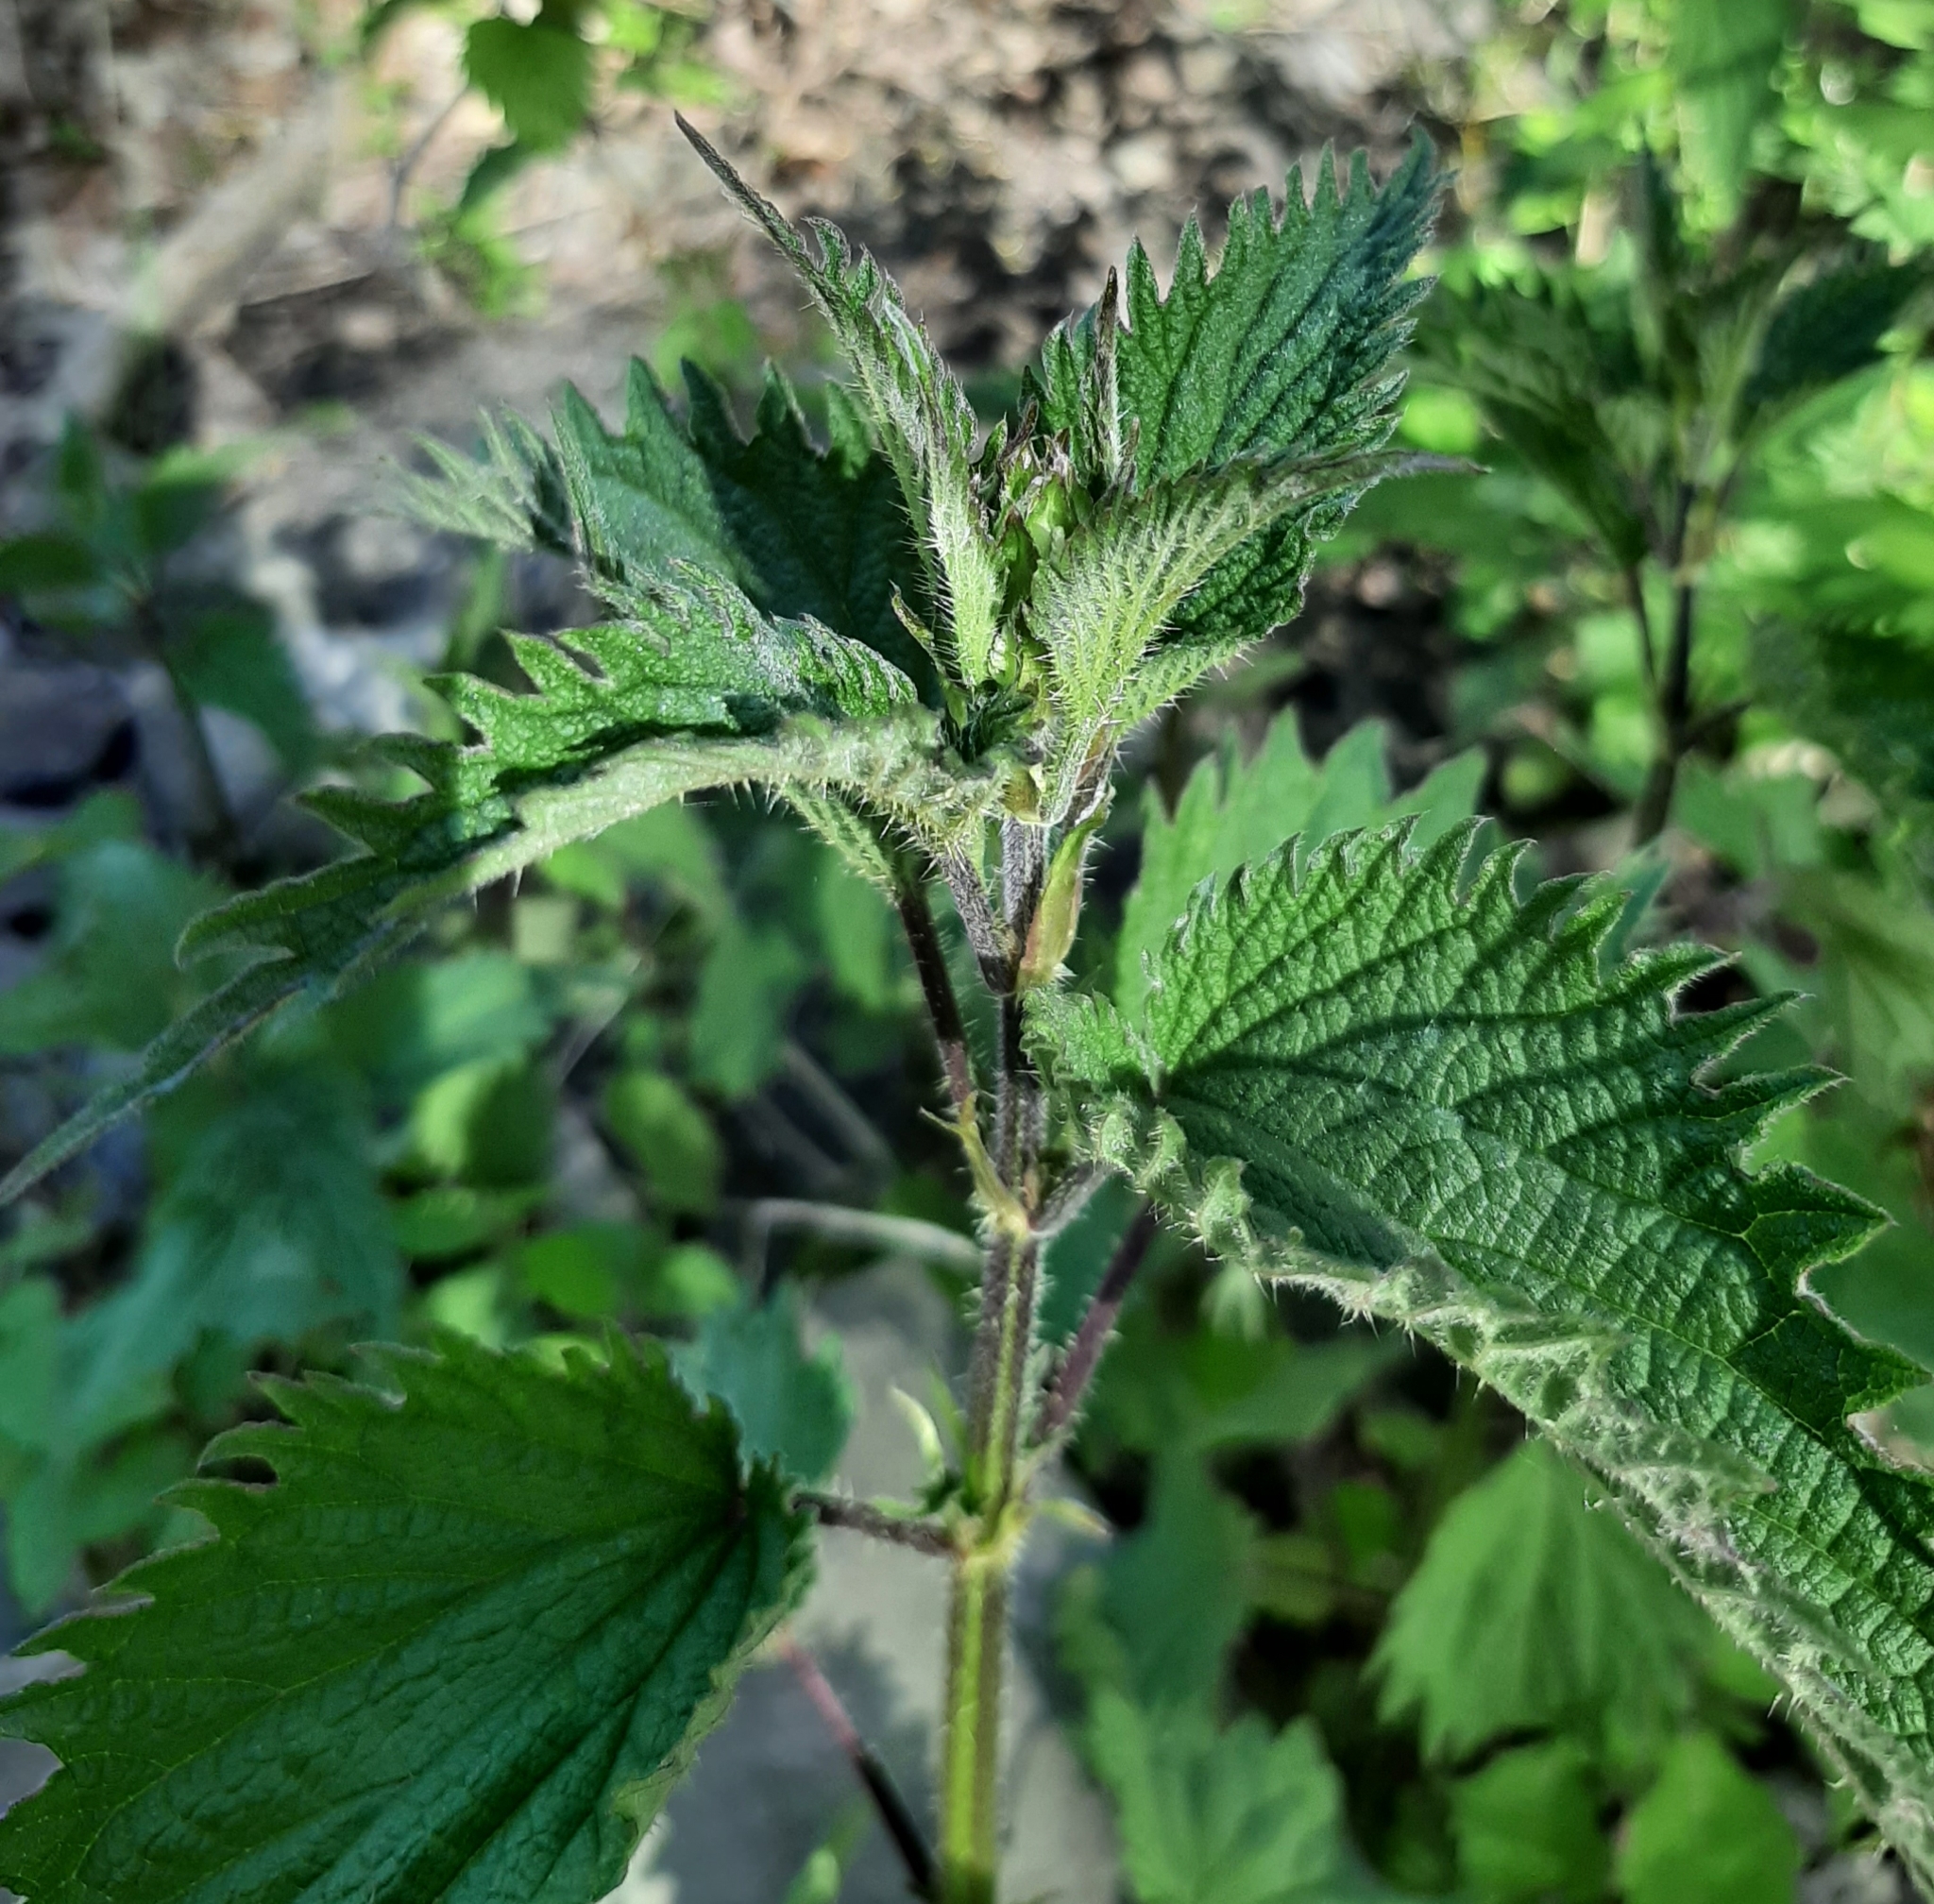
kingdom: Plantae
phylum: Tracheophyta
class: Magnoliopsida
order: Rosales
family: Urticaceae
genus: Urtica
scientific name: Urtica dioica
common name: Common nettle
